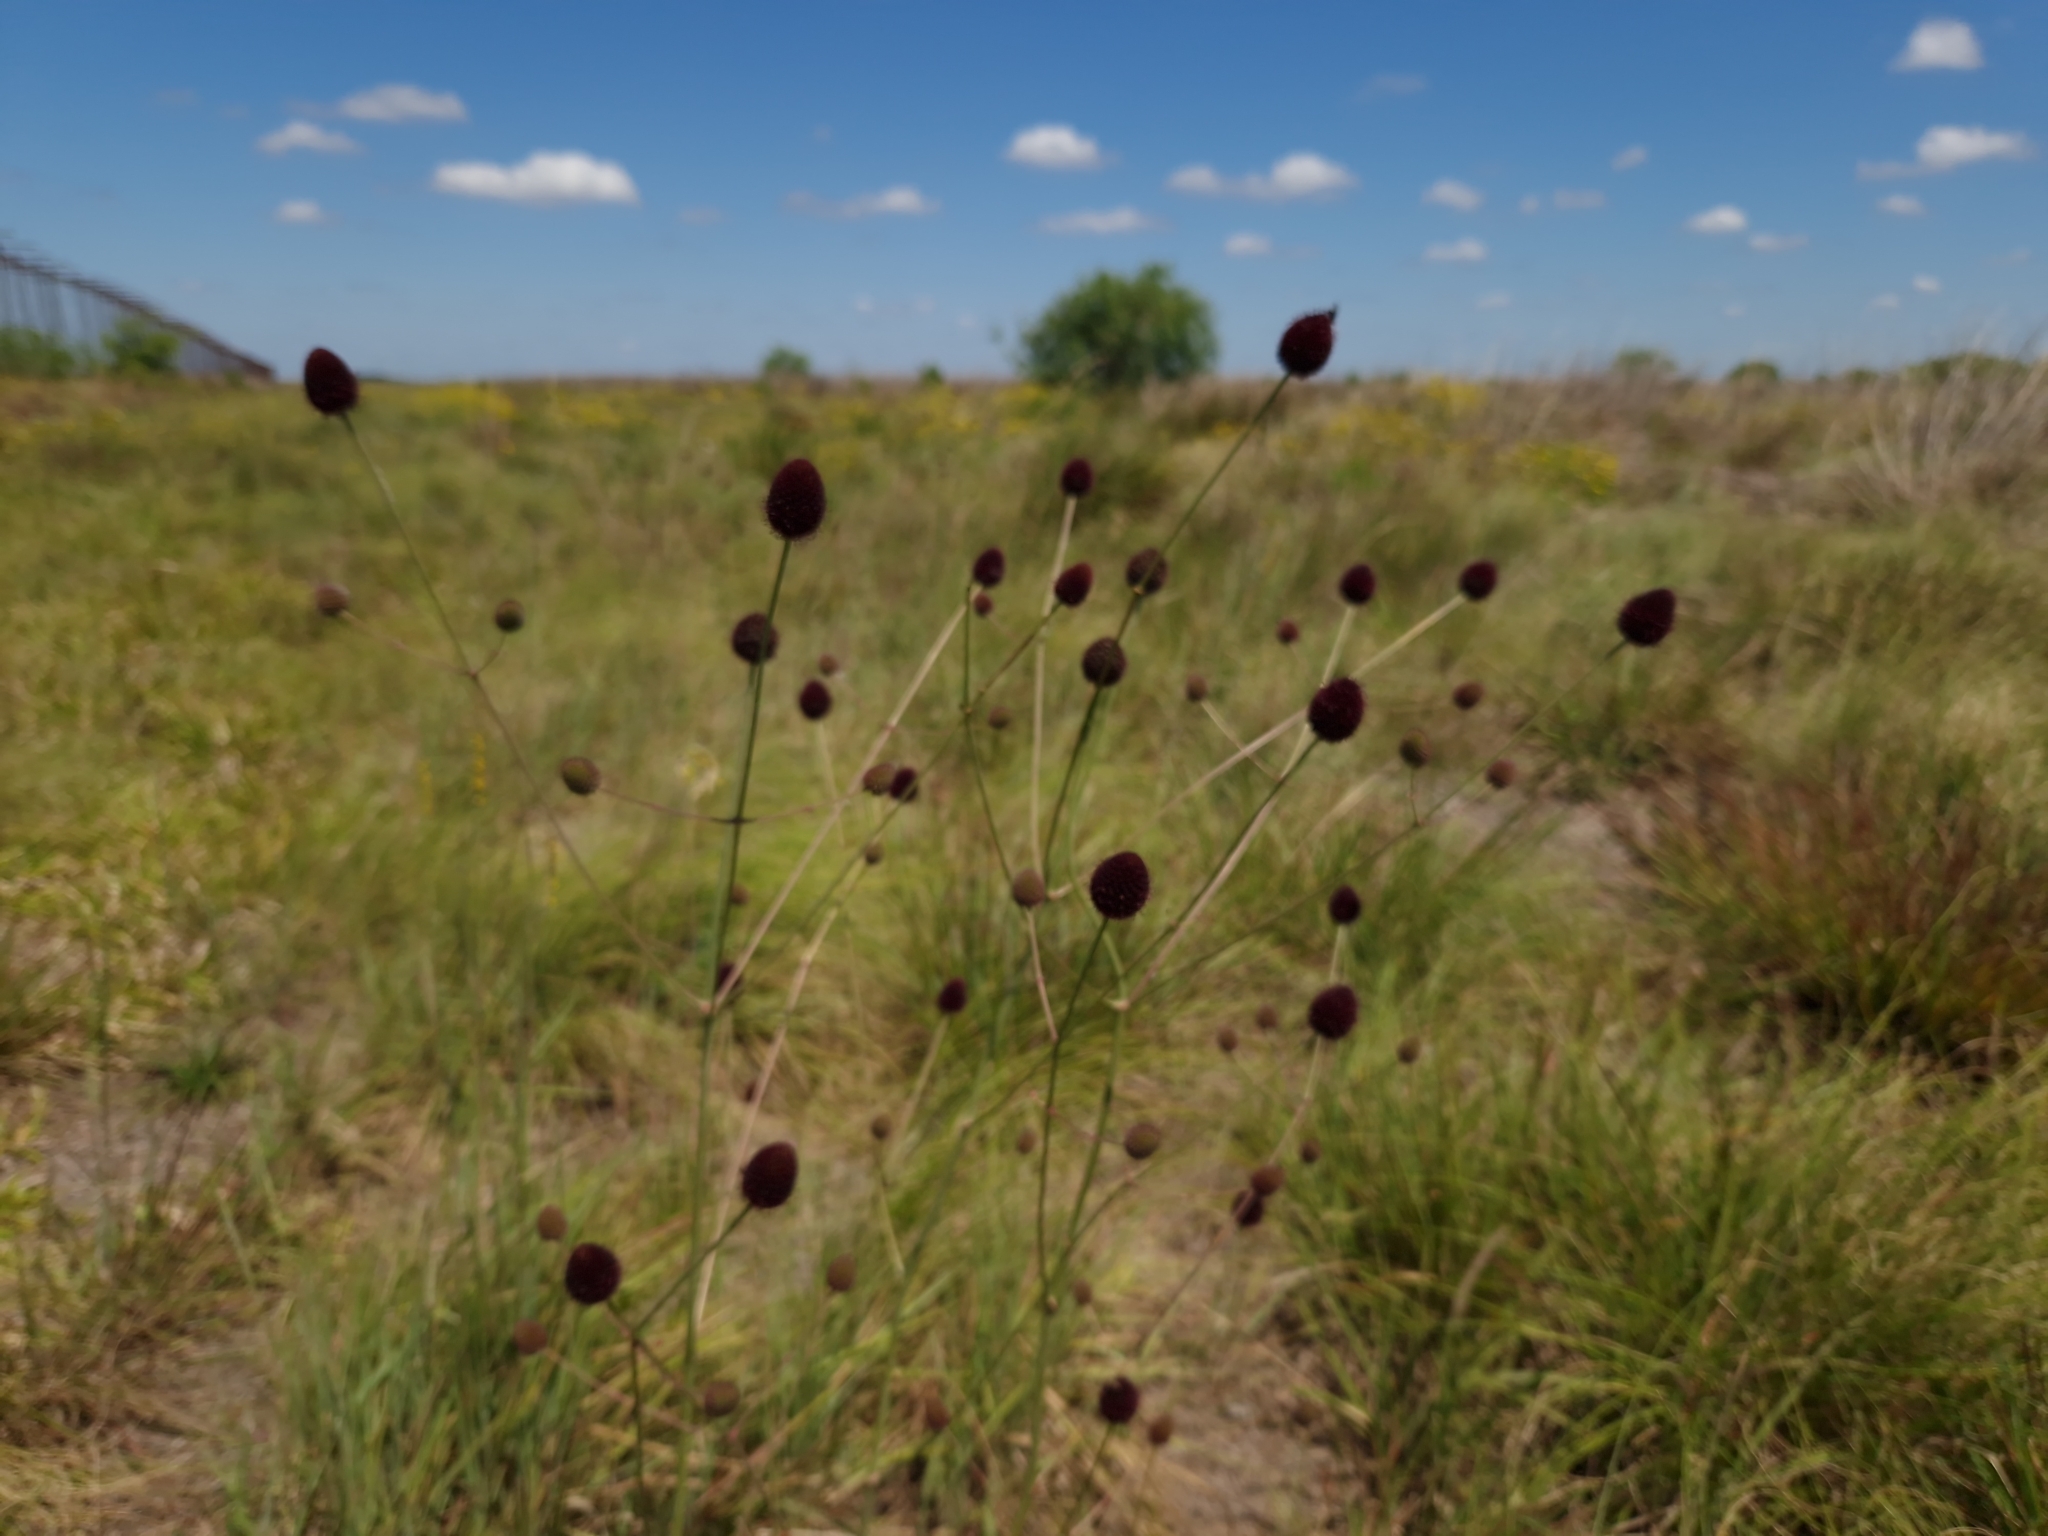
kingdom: Plantae
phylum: Tracheophyta
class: Magnoliopsida
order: Apiales
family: Apiaceae
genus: Eryngium
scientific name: Eryngium sanguisorba
